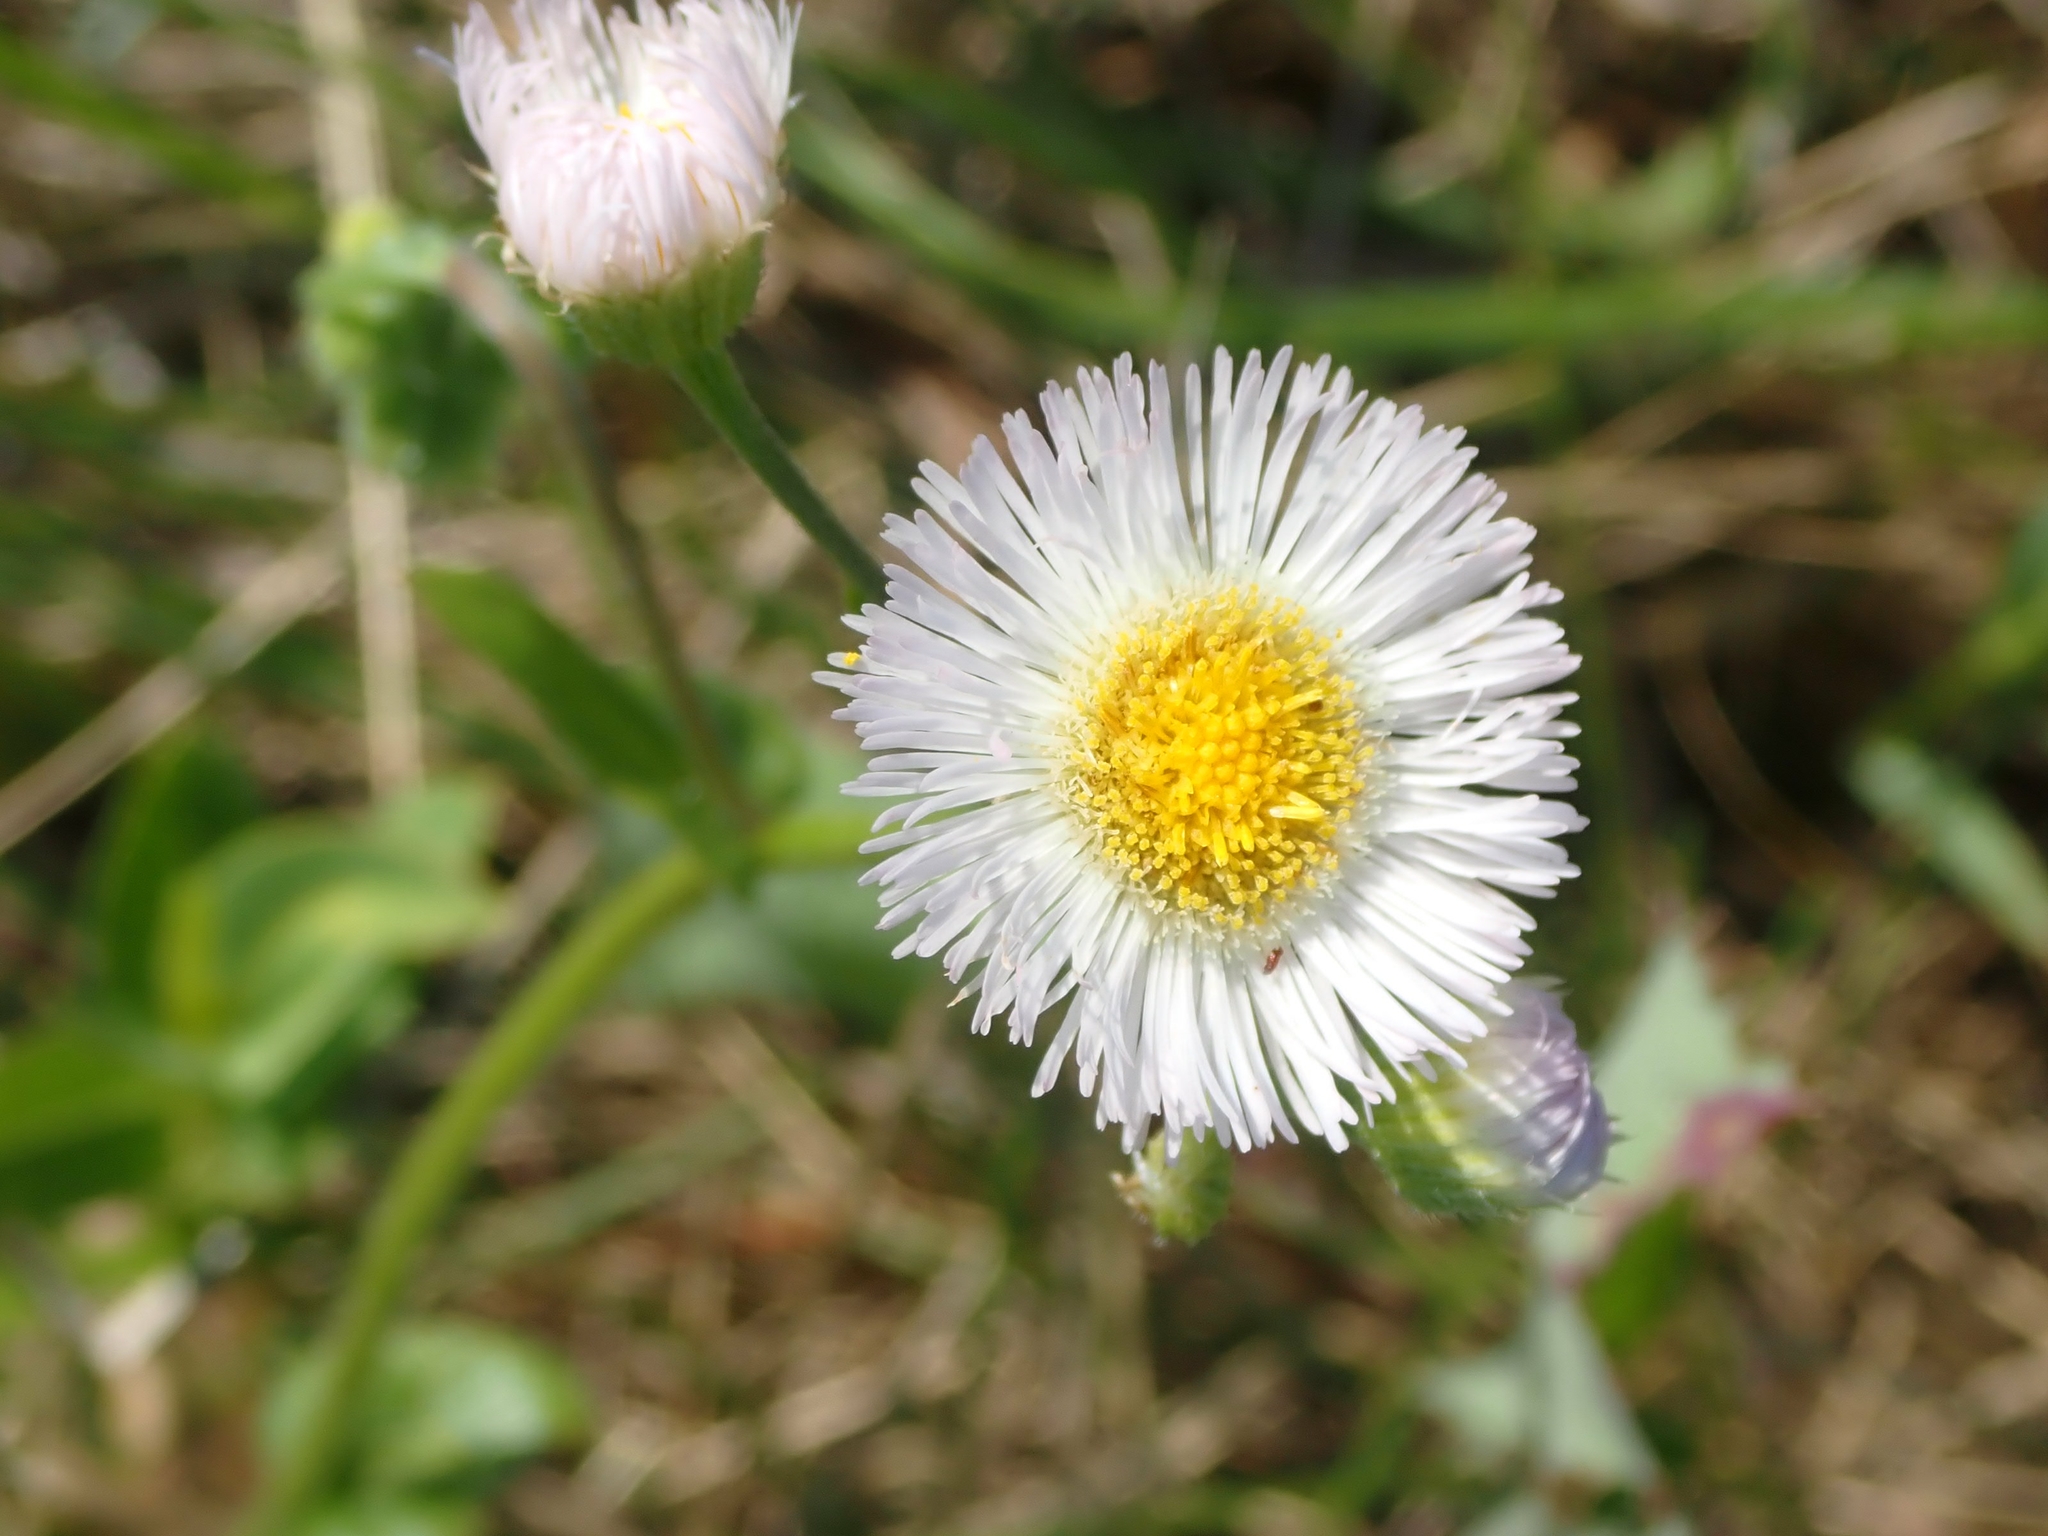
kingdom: Plantae
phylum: Tracheophyta
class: Magnoliopsida
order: Asterales
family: Asteraceae
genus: Erigeron
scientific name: Erigeron philadelphicus
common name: Robin's-plantain
